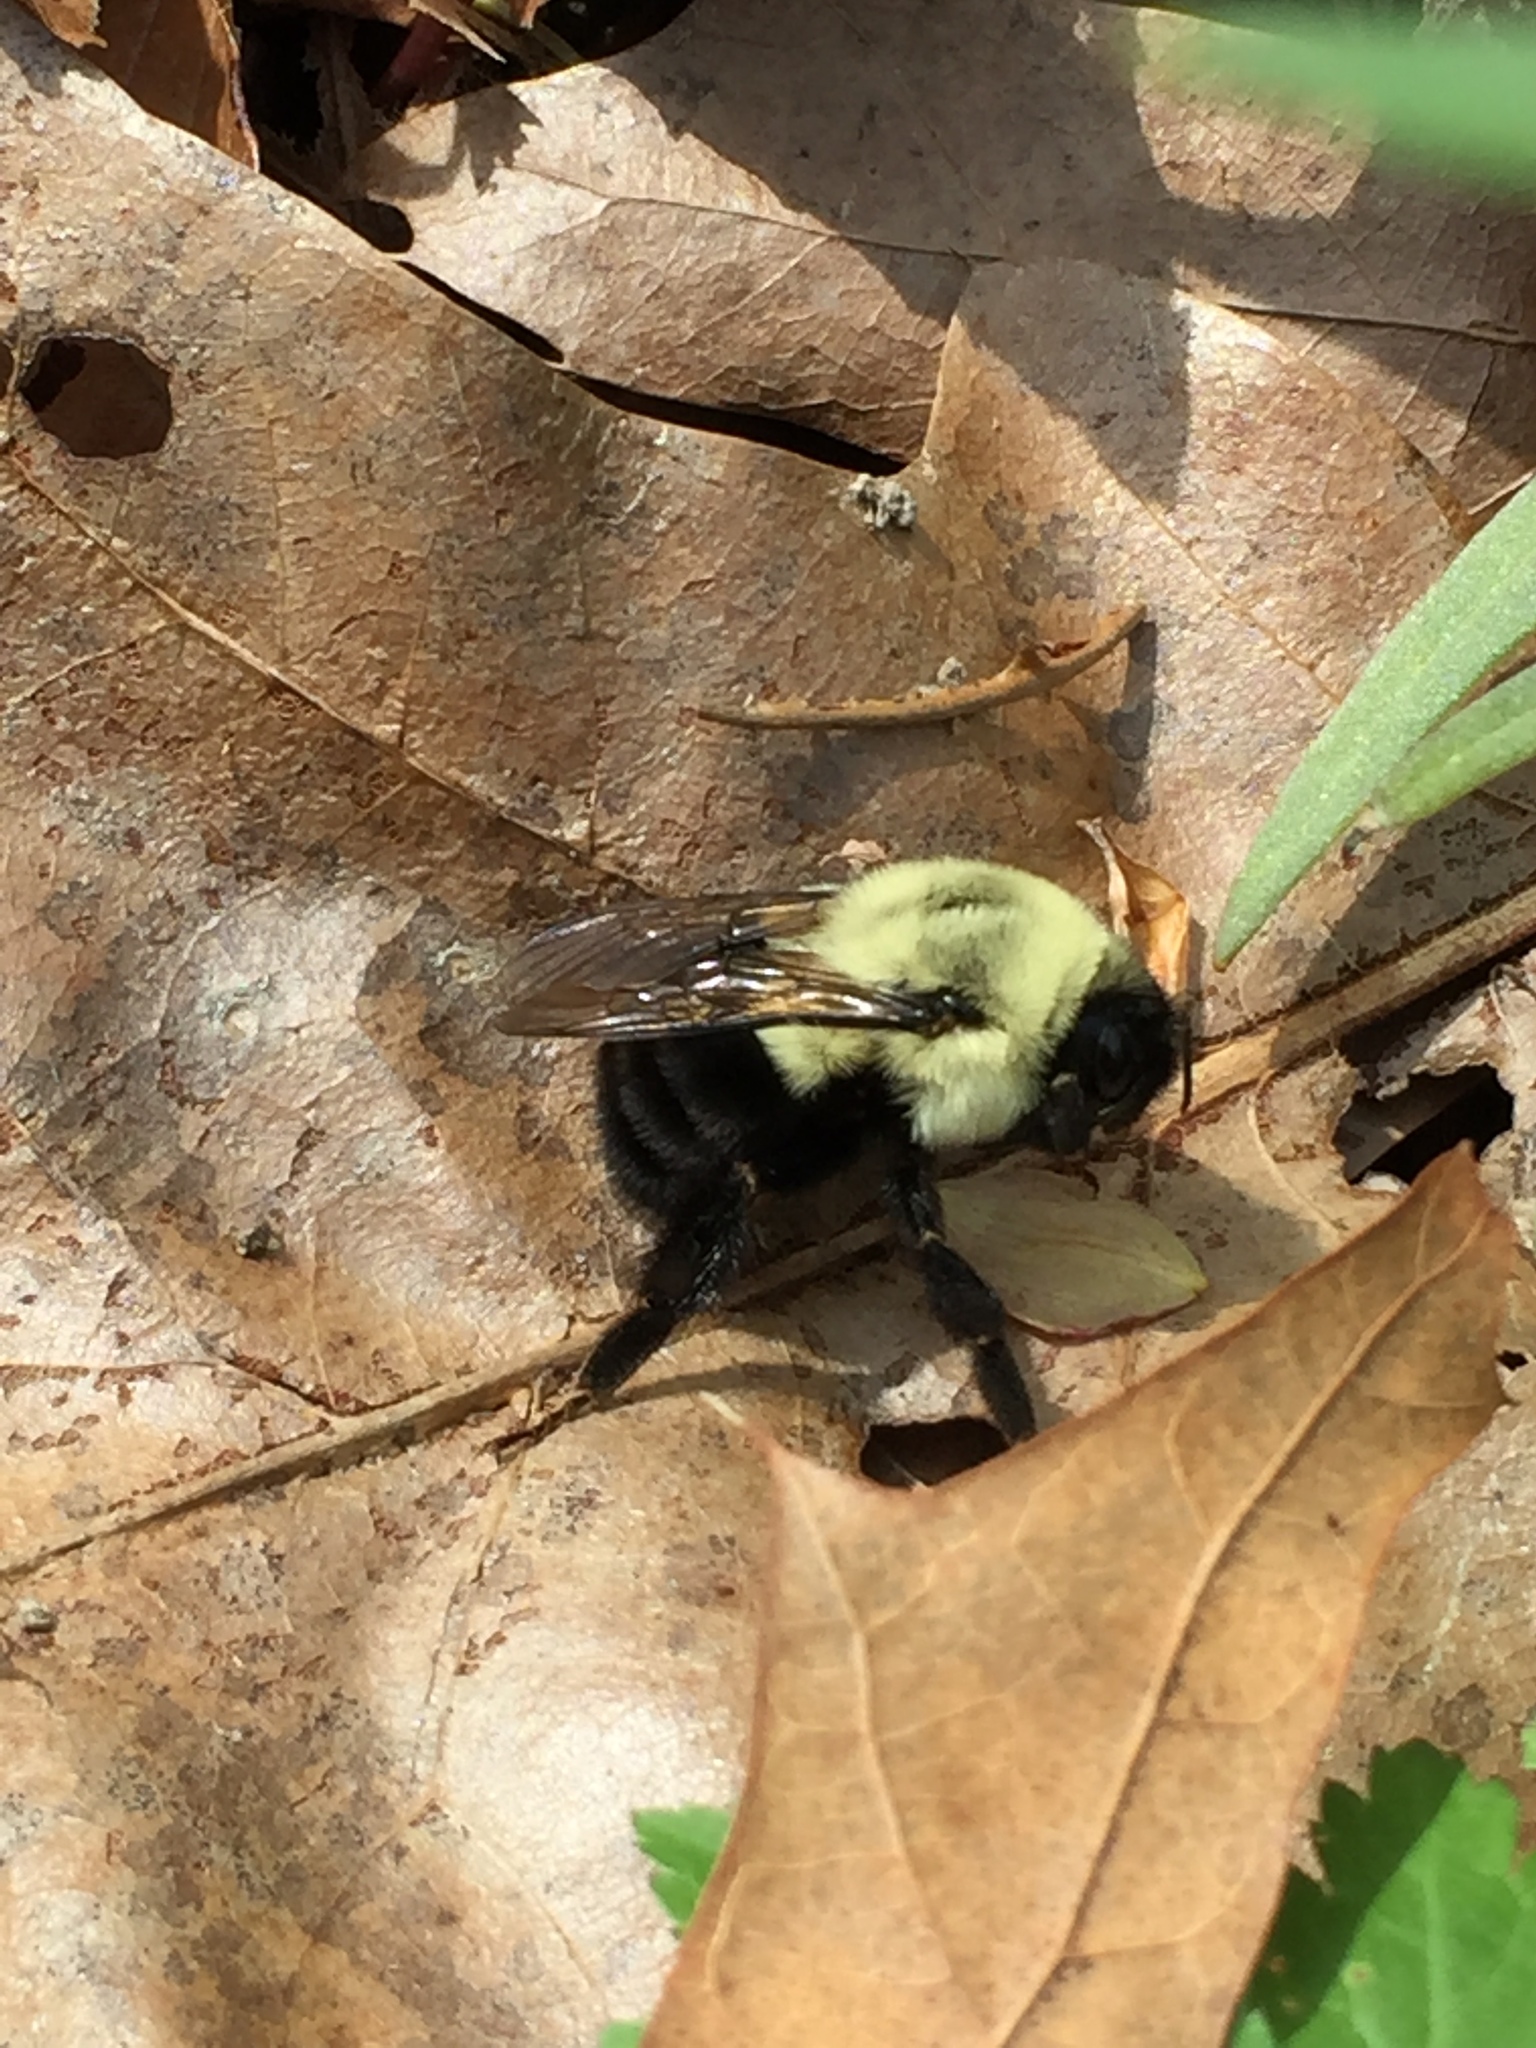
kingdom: Animalia
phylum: Arthropoda
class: Insecta
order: Hymenoptera
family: Apidae
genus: Bombus
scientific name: Bombus impatiens
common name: Common eastern bumble bee
